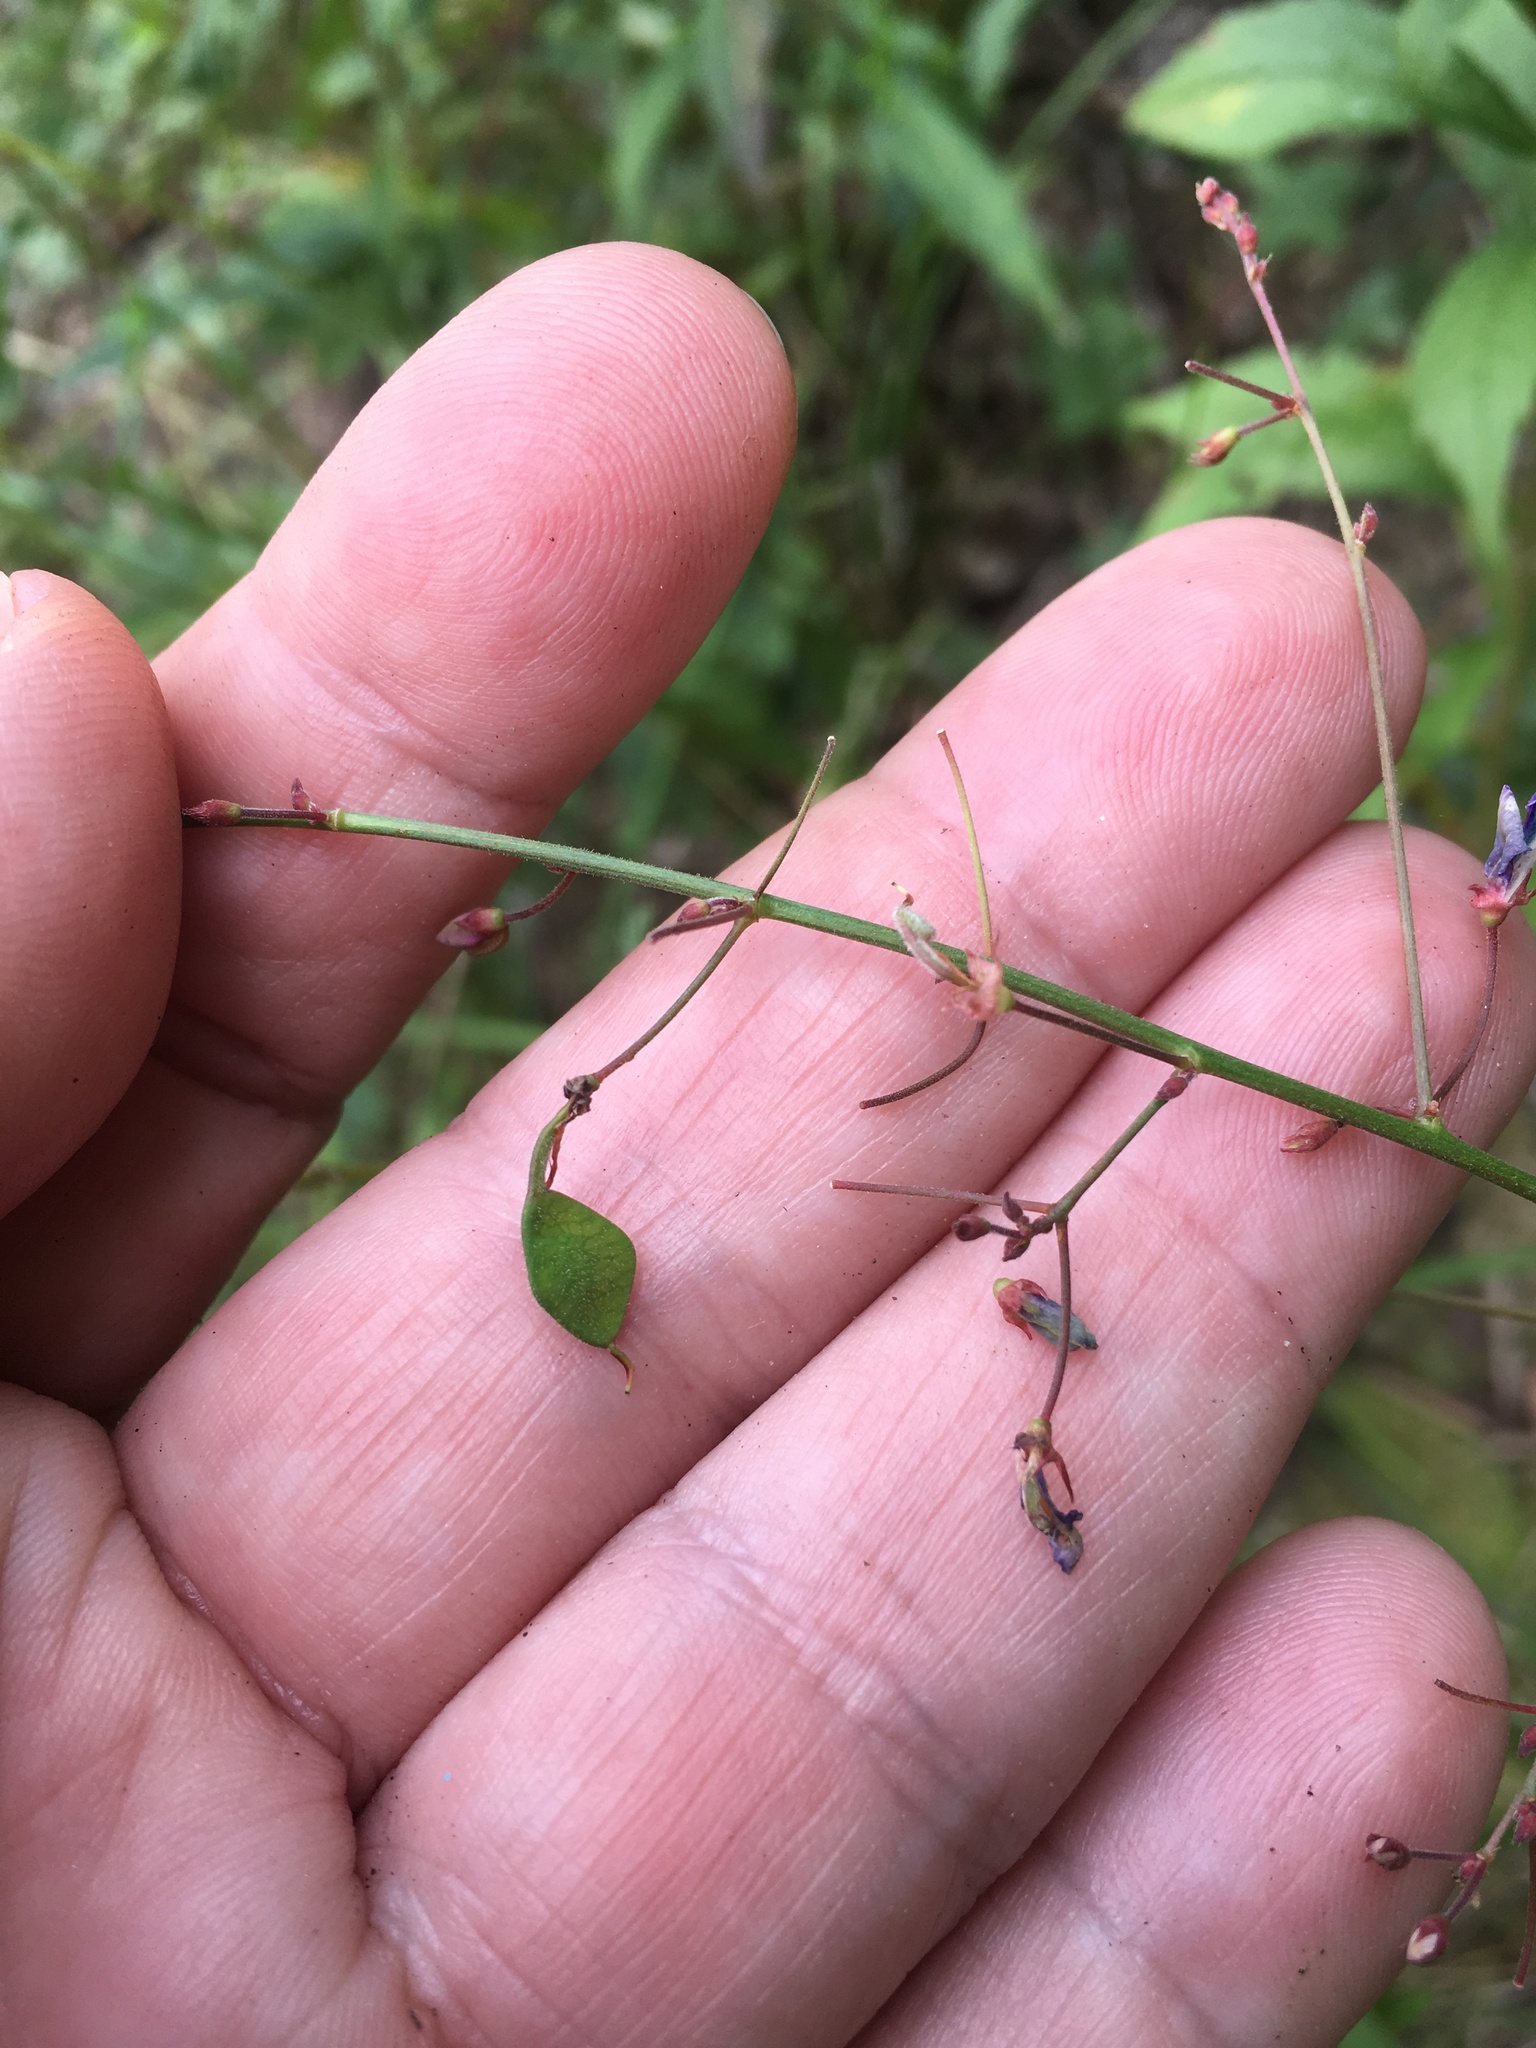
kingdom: Plantae
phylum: Tracheophyta
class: Magnoliopsida
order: Fabales
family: Fabaceae
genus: Desmodium
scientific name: Desmodium paniculatum
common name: Panicled tick-clover
